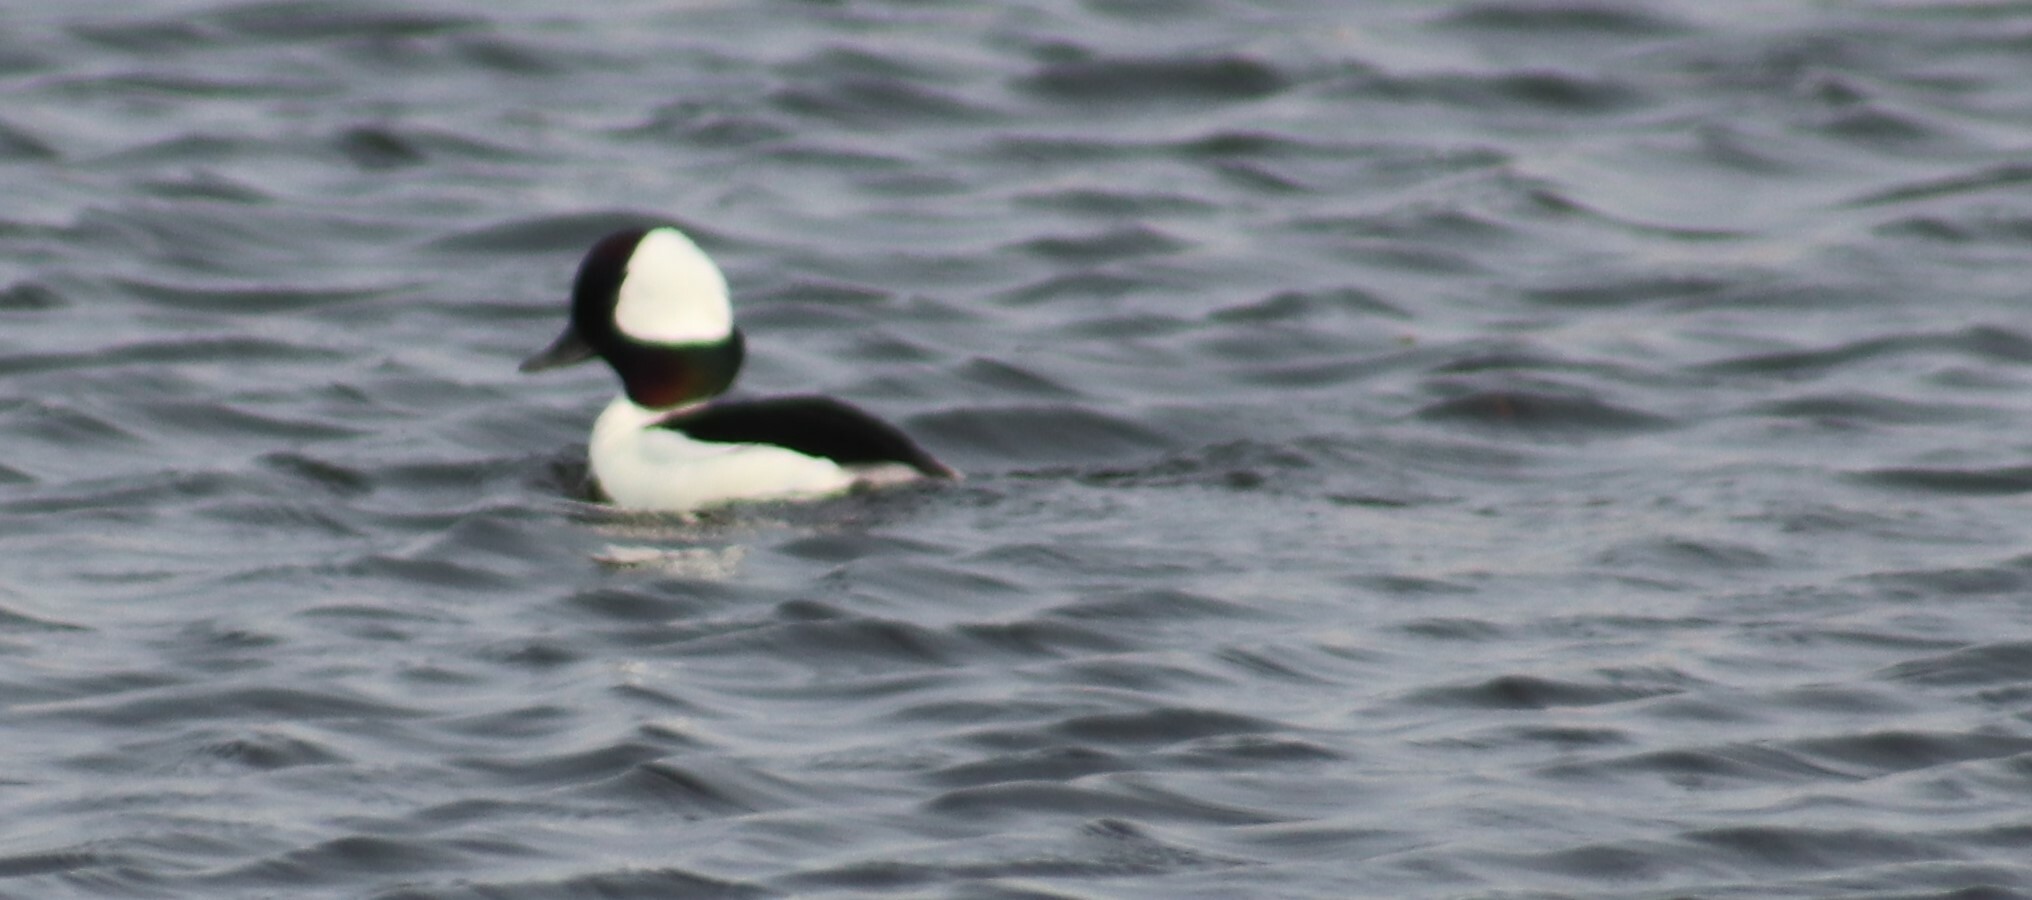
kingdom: Animalia
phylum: Chordata
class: Aves
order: Anseriformes
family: Anatidae
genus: Bucephala
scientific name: Bucephala albeola
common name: Bufflehead
